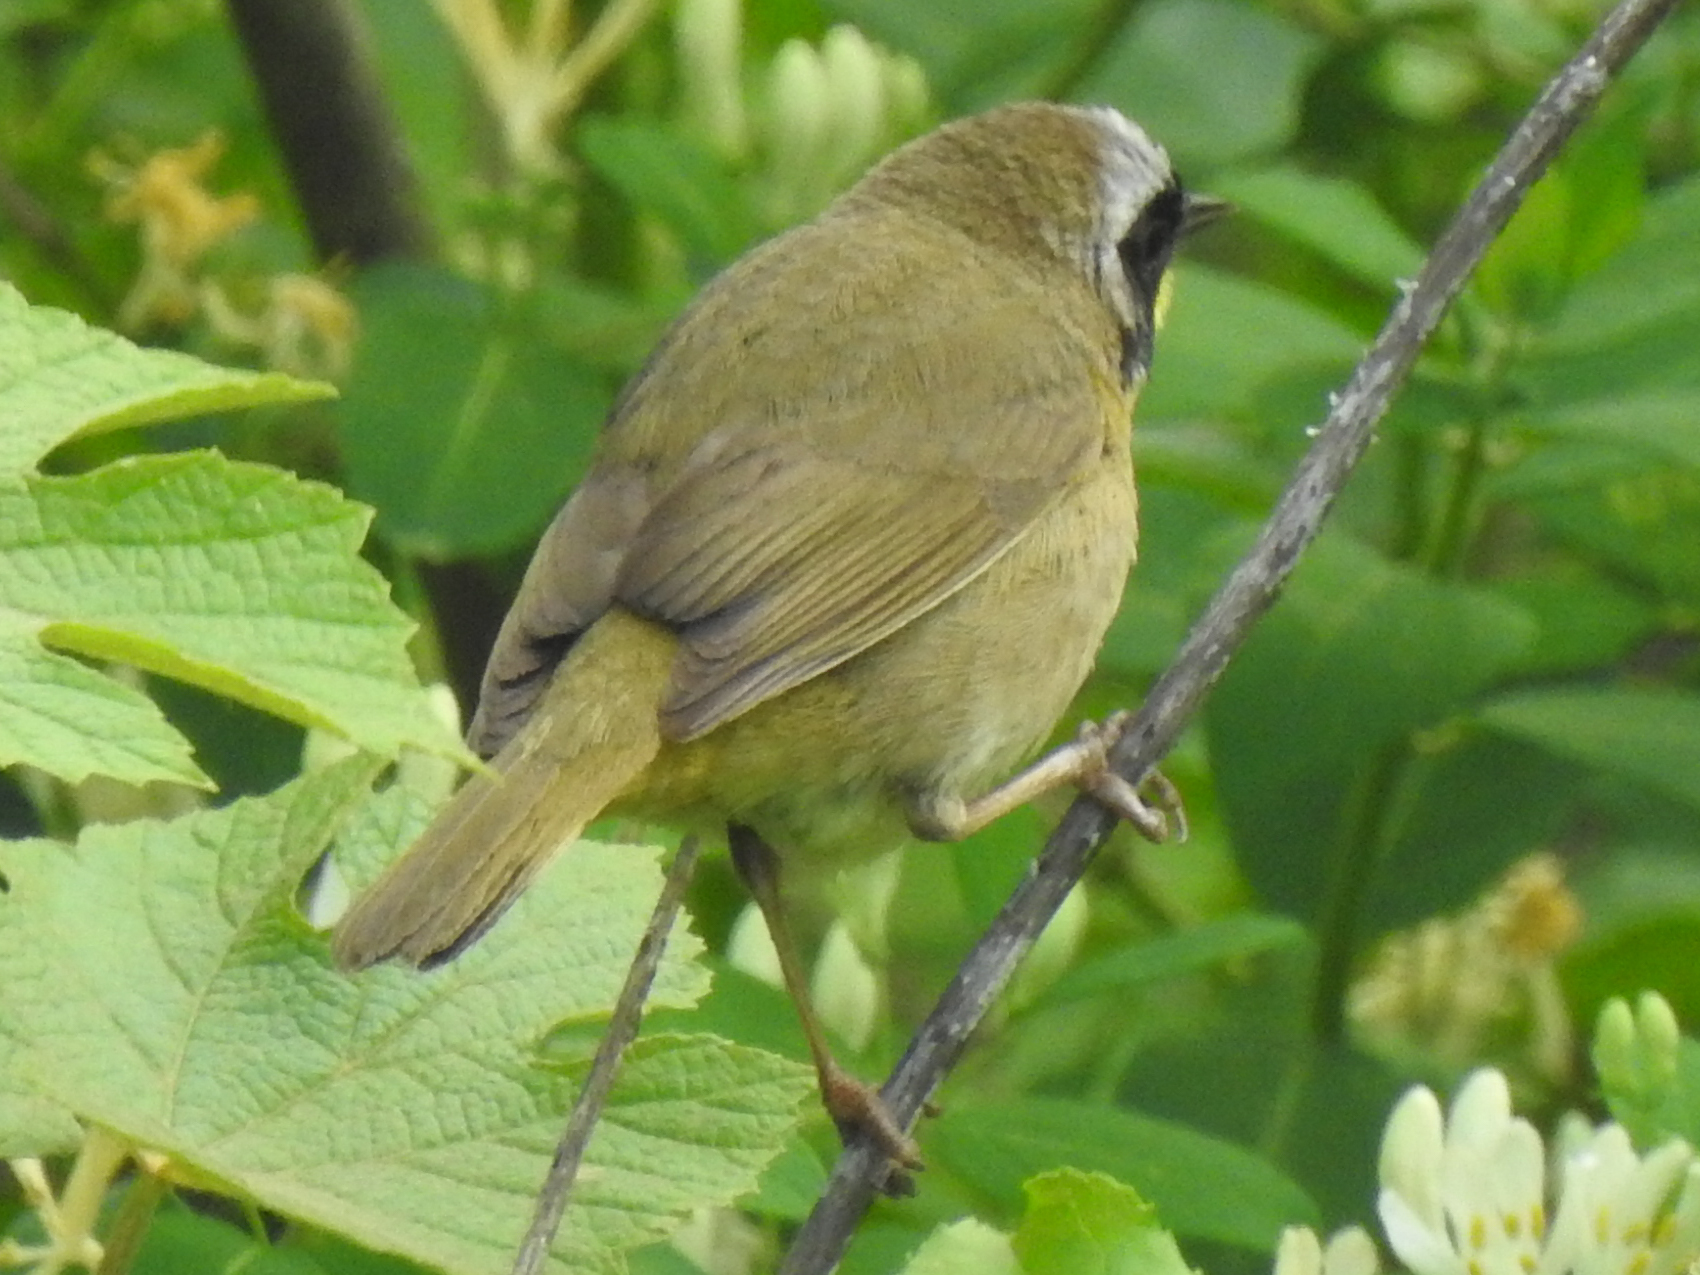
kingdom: Animalia
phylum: Chordata
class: Aves
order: Passeriformes
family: Parulidae
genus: Geothlypis
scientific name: Geothlypis trichas
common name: Common yellowthroat
